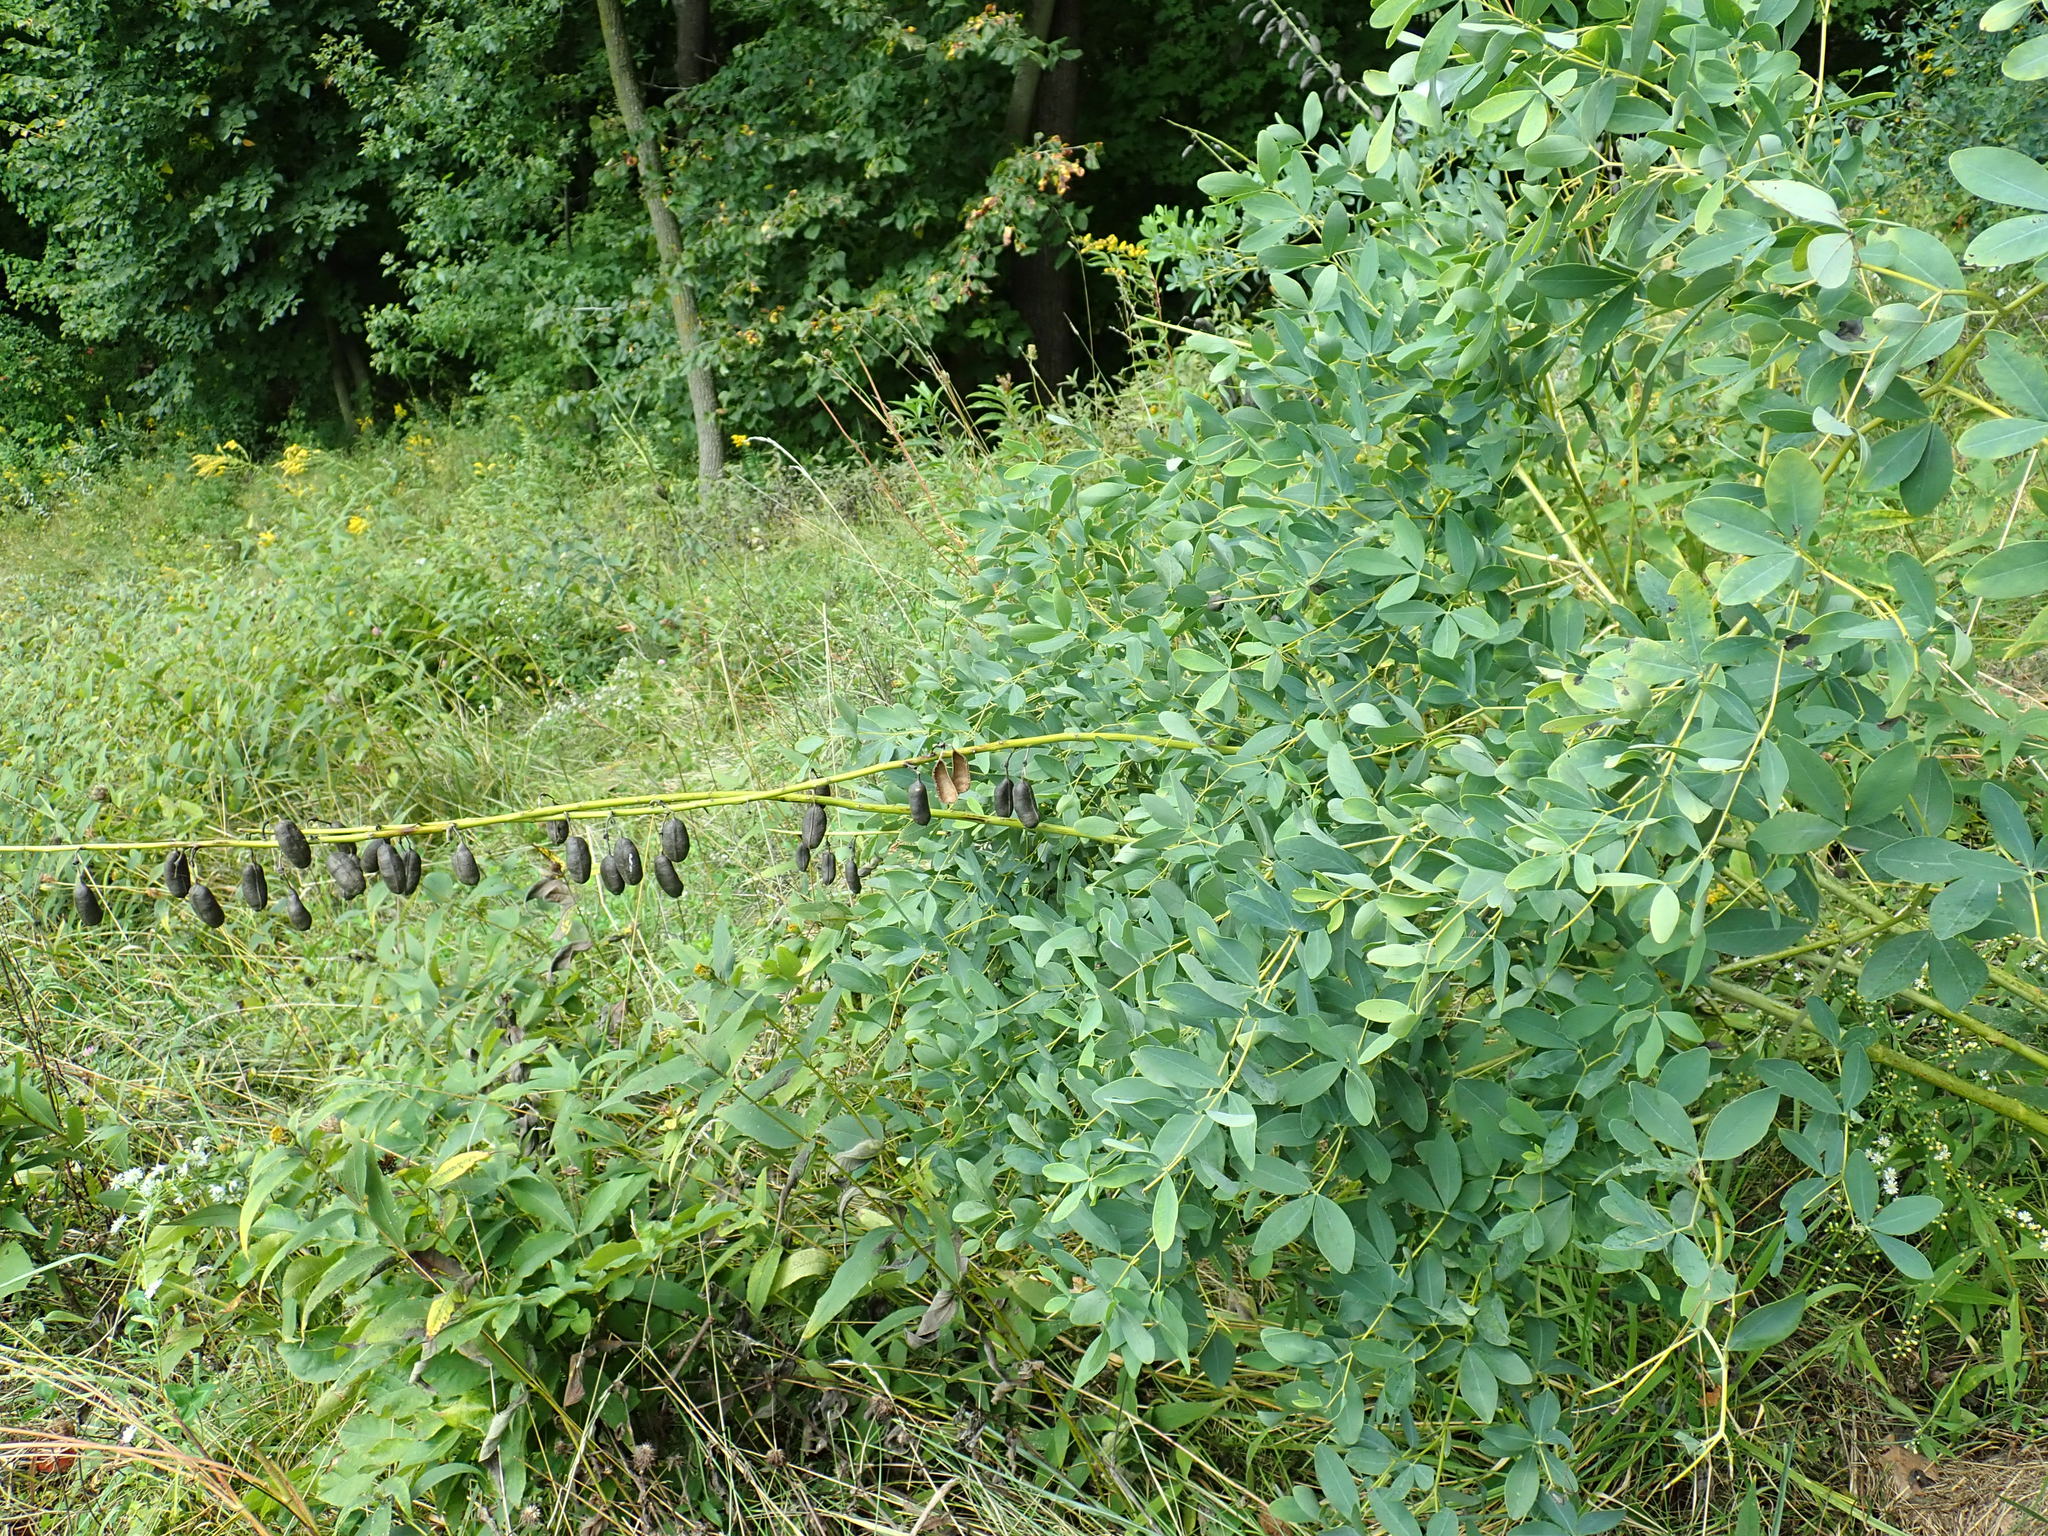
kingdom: Plantae
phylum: Tracheophyta
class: Magnoliopsida
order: Fabales
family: Fabaceae
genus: Baptisia
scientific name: Baptisia australis
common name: Blue false indigo
